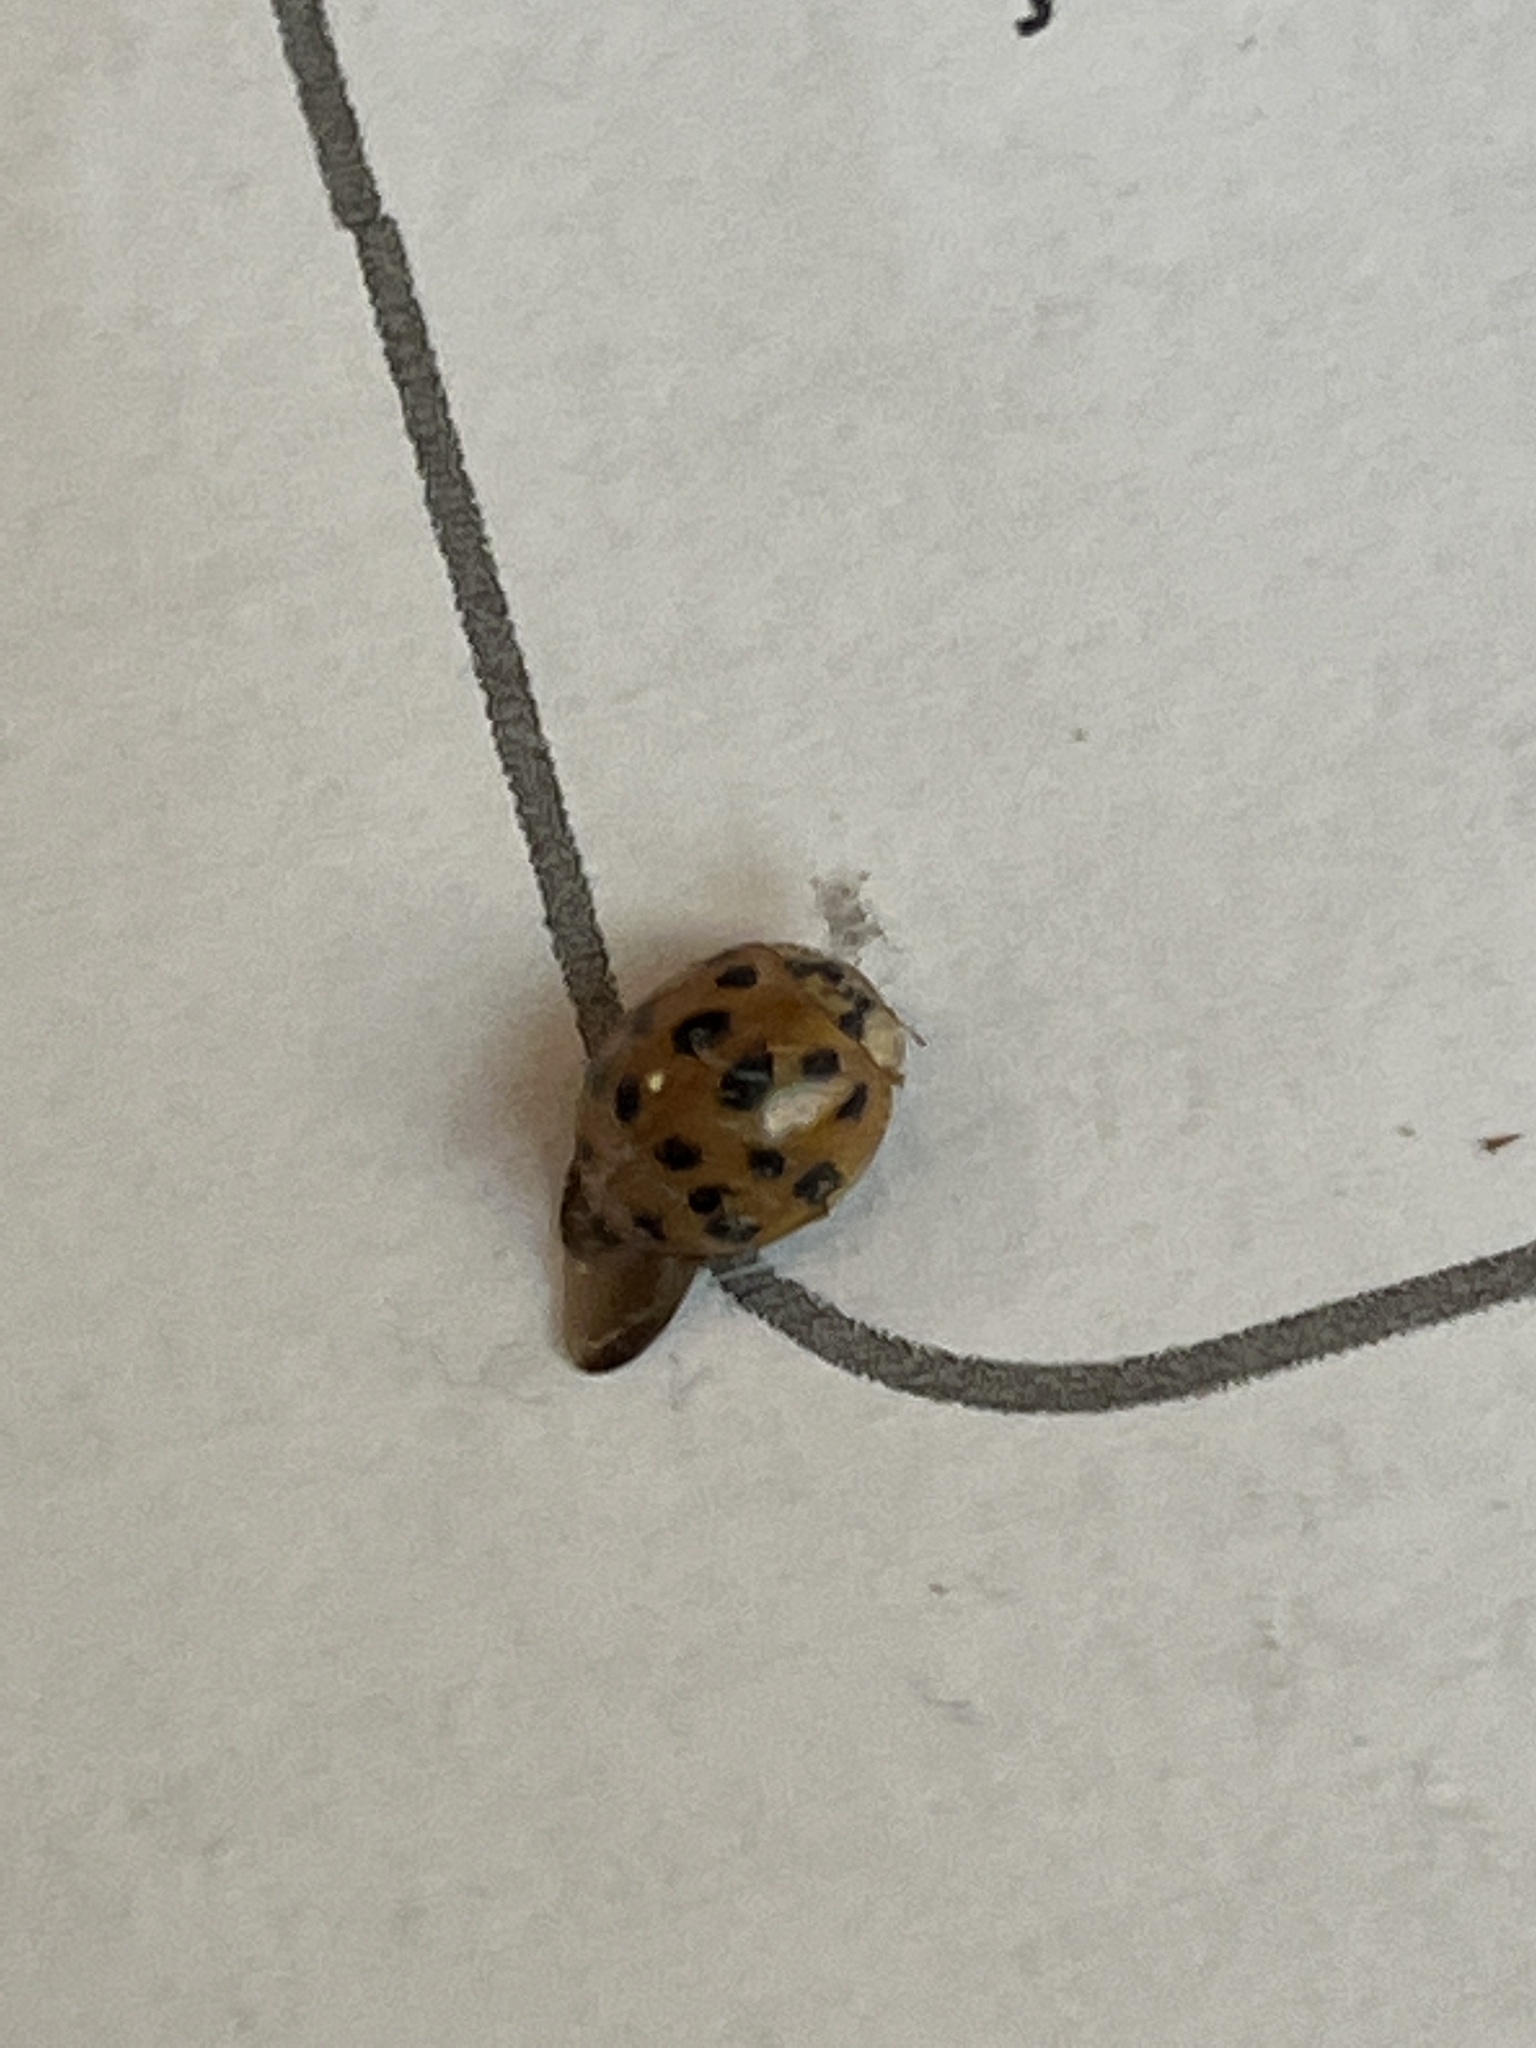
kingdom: Animalia
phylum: Arthropoda
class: Insecta
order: Coleoptera
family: Coccinellidae
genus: Harmonia
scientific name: Harmonia axyridis
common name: Harlequin ladybird
